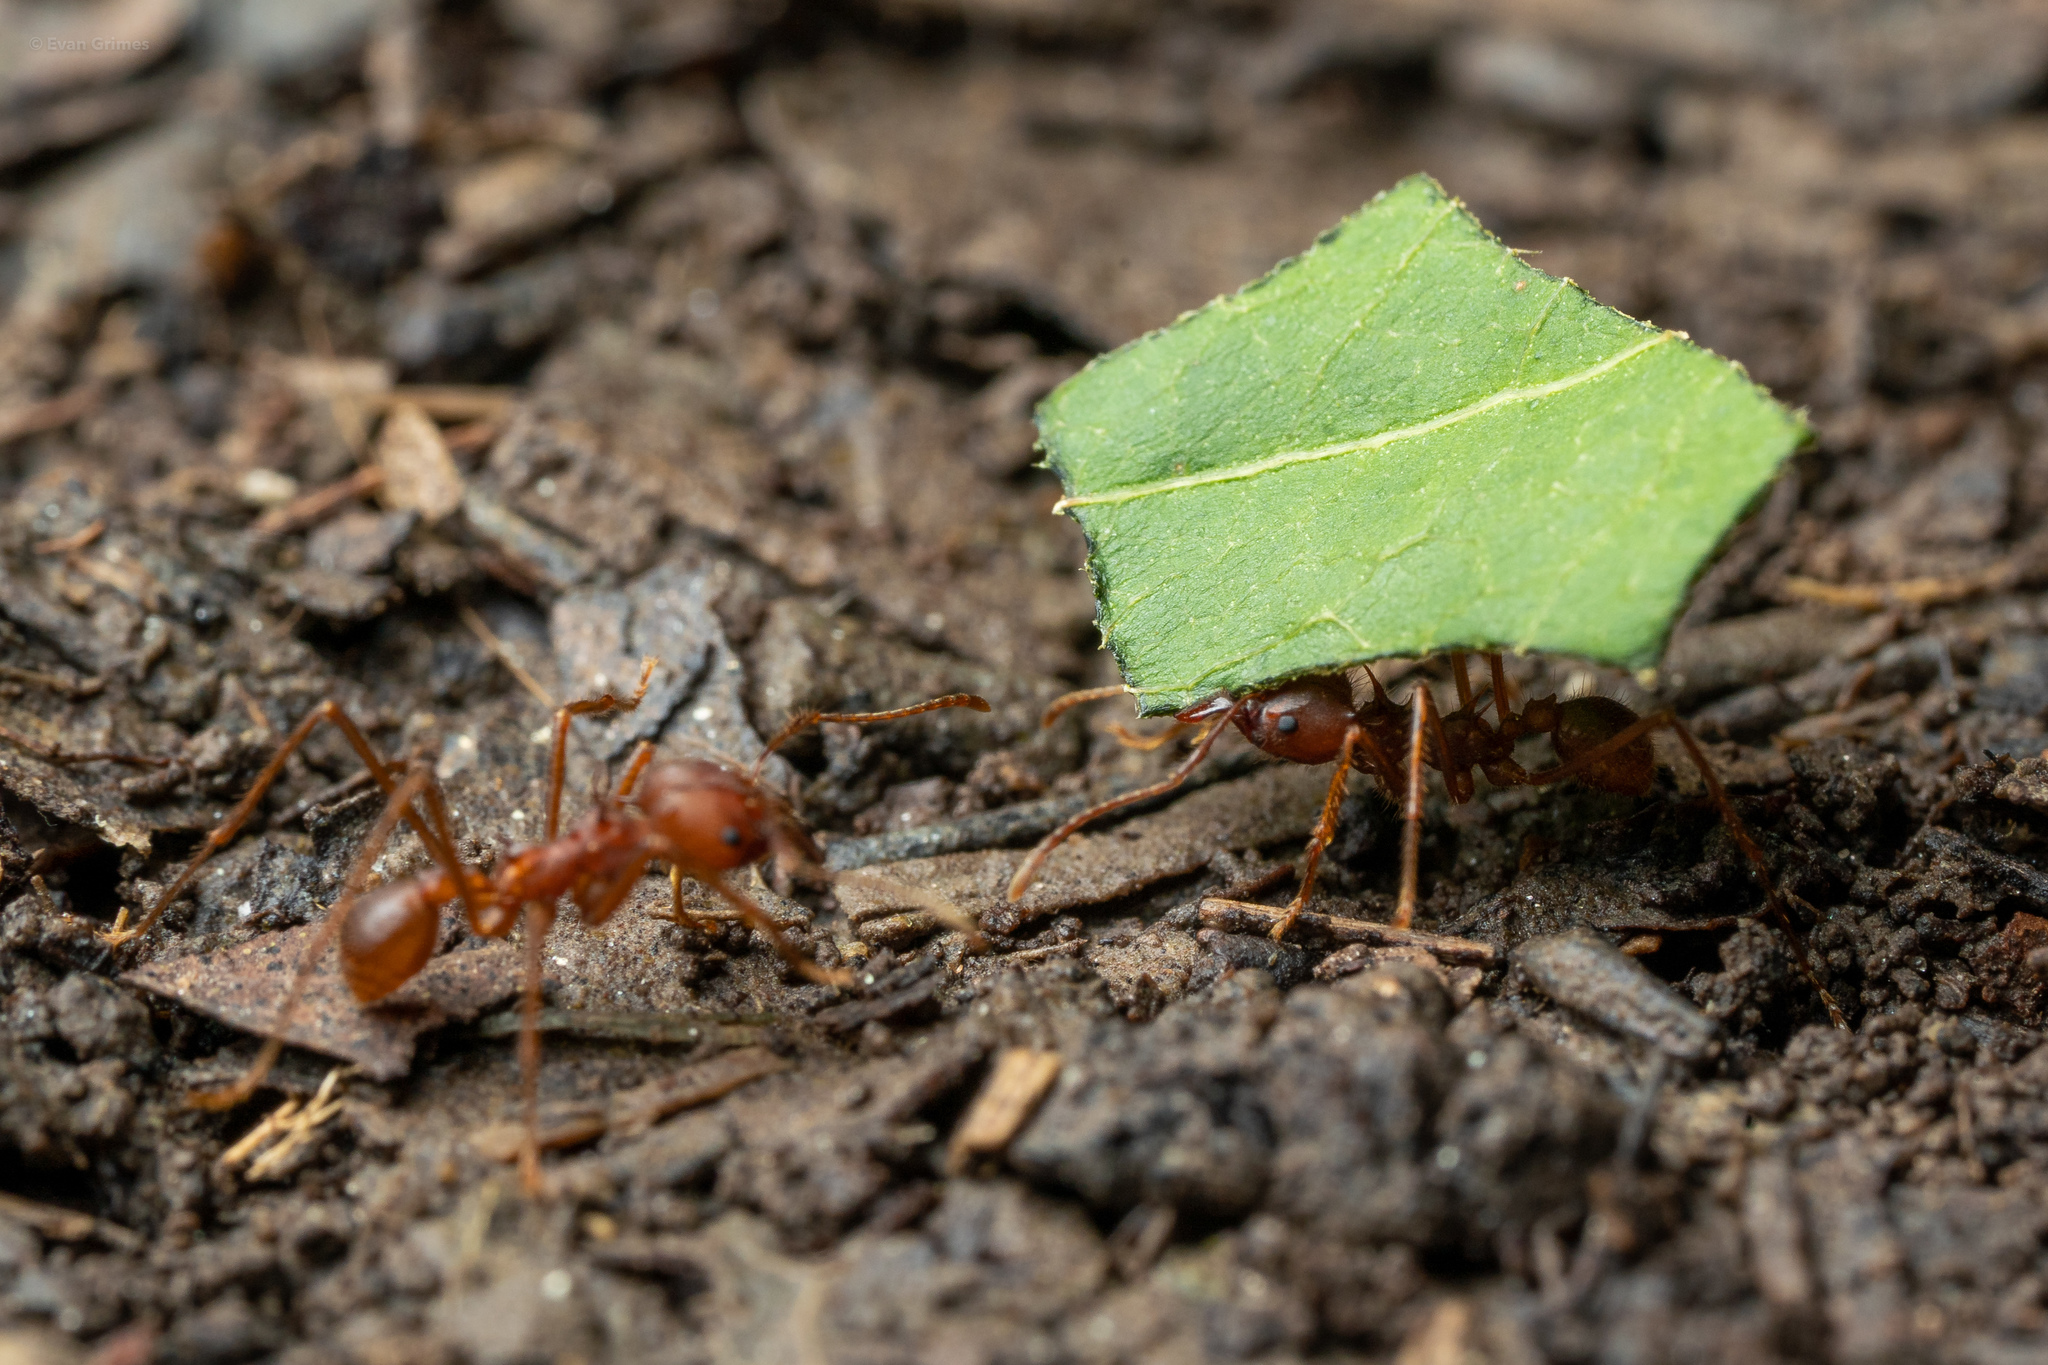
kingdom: Animalia
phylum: Arthropoda
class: Insecta
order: Hymenoptera
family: Formicidae
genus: Atta
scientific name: Atta texana
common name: Texas leafcutting ant
